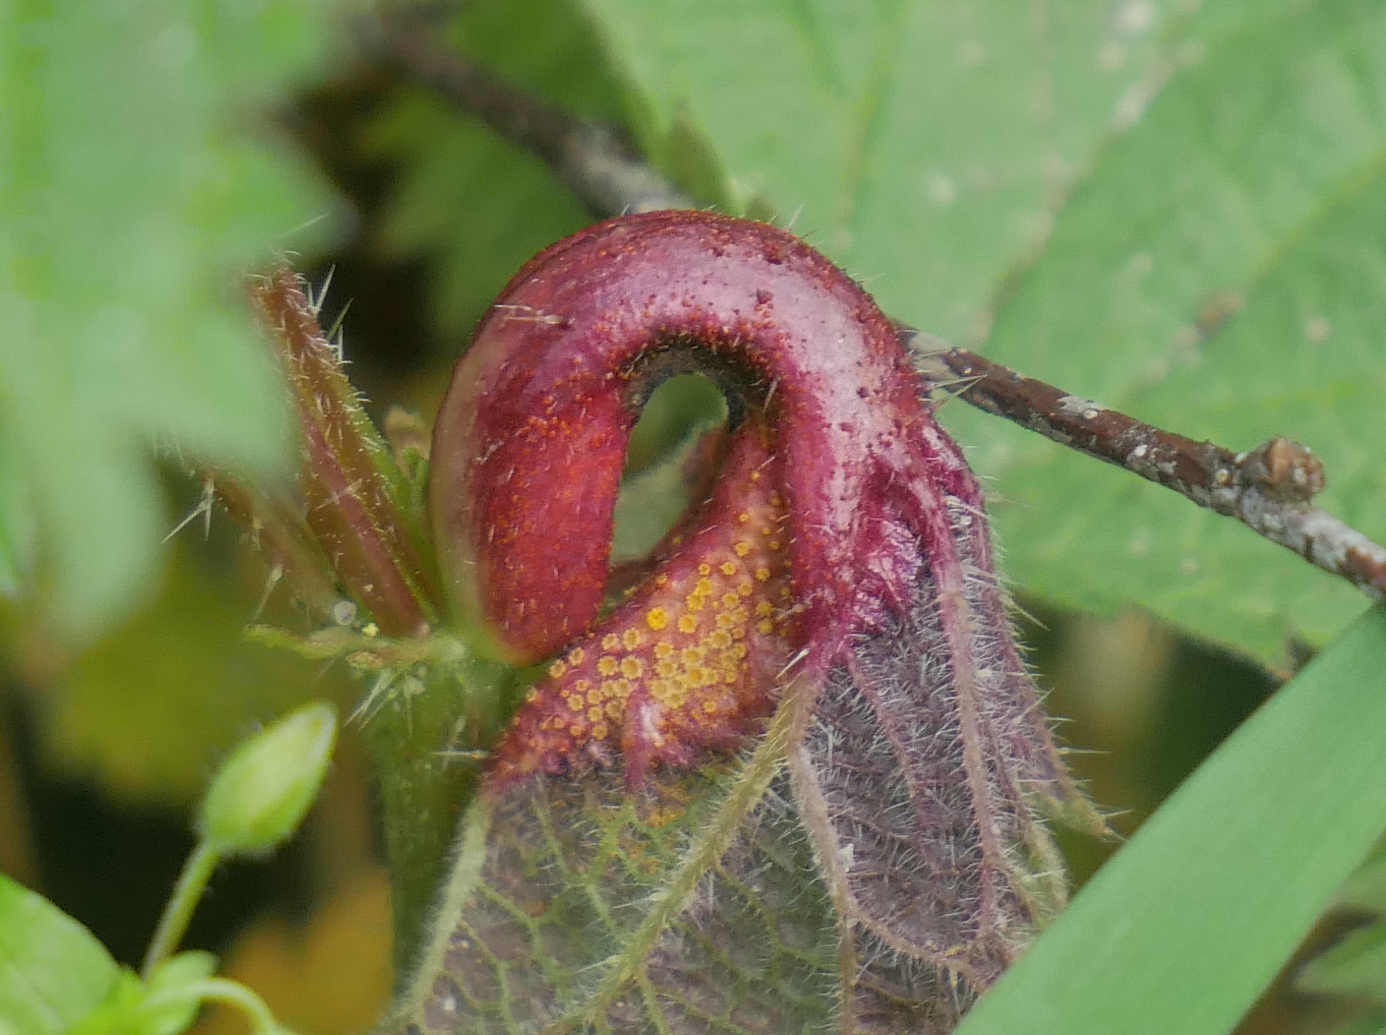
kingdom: Fungi
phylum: Basidiomycota
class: Pucciniomycetes
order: Pucciniales
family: Pucciniaceae
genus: Puccinia
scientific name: Puccinia urticata
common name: Nettle clustercup rust fungus
